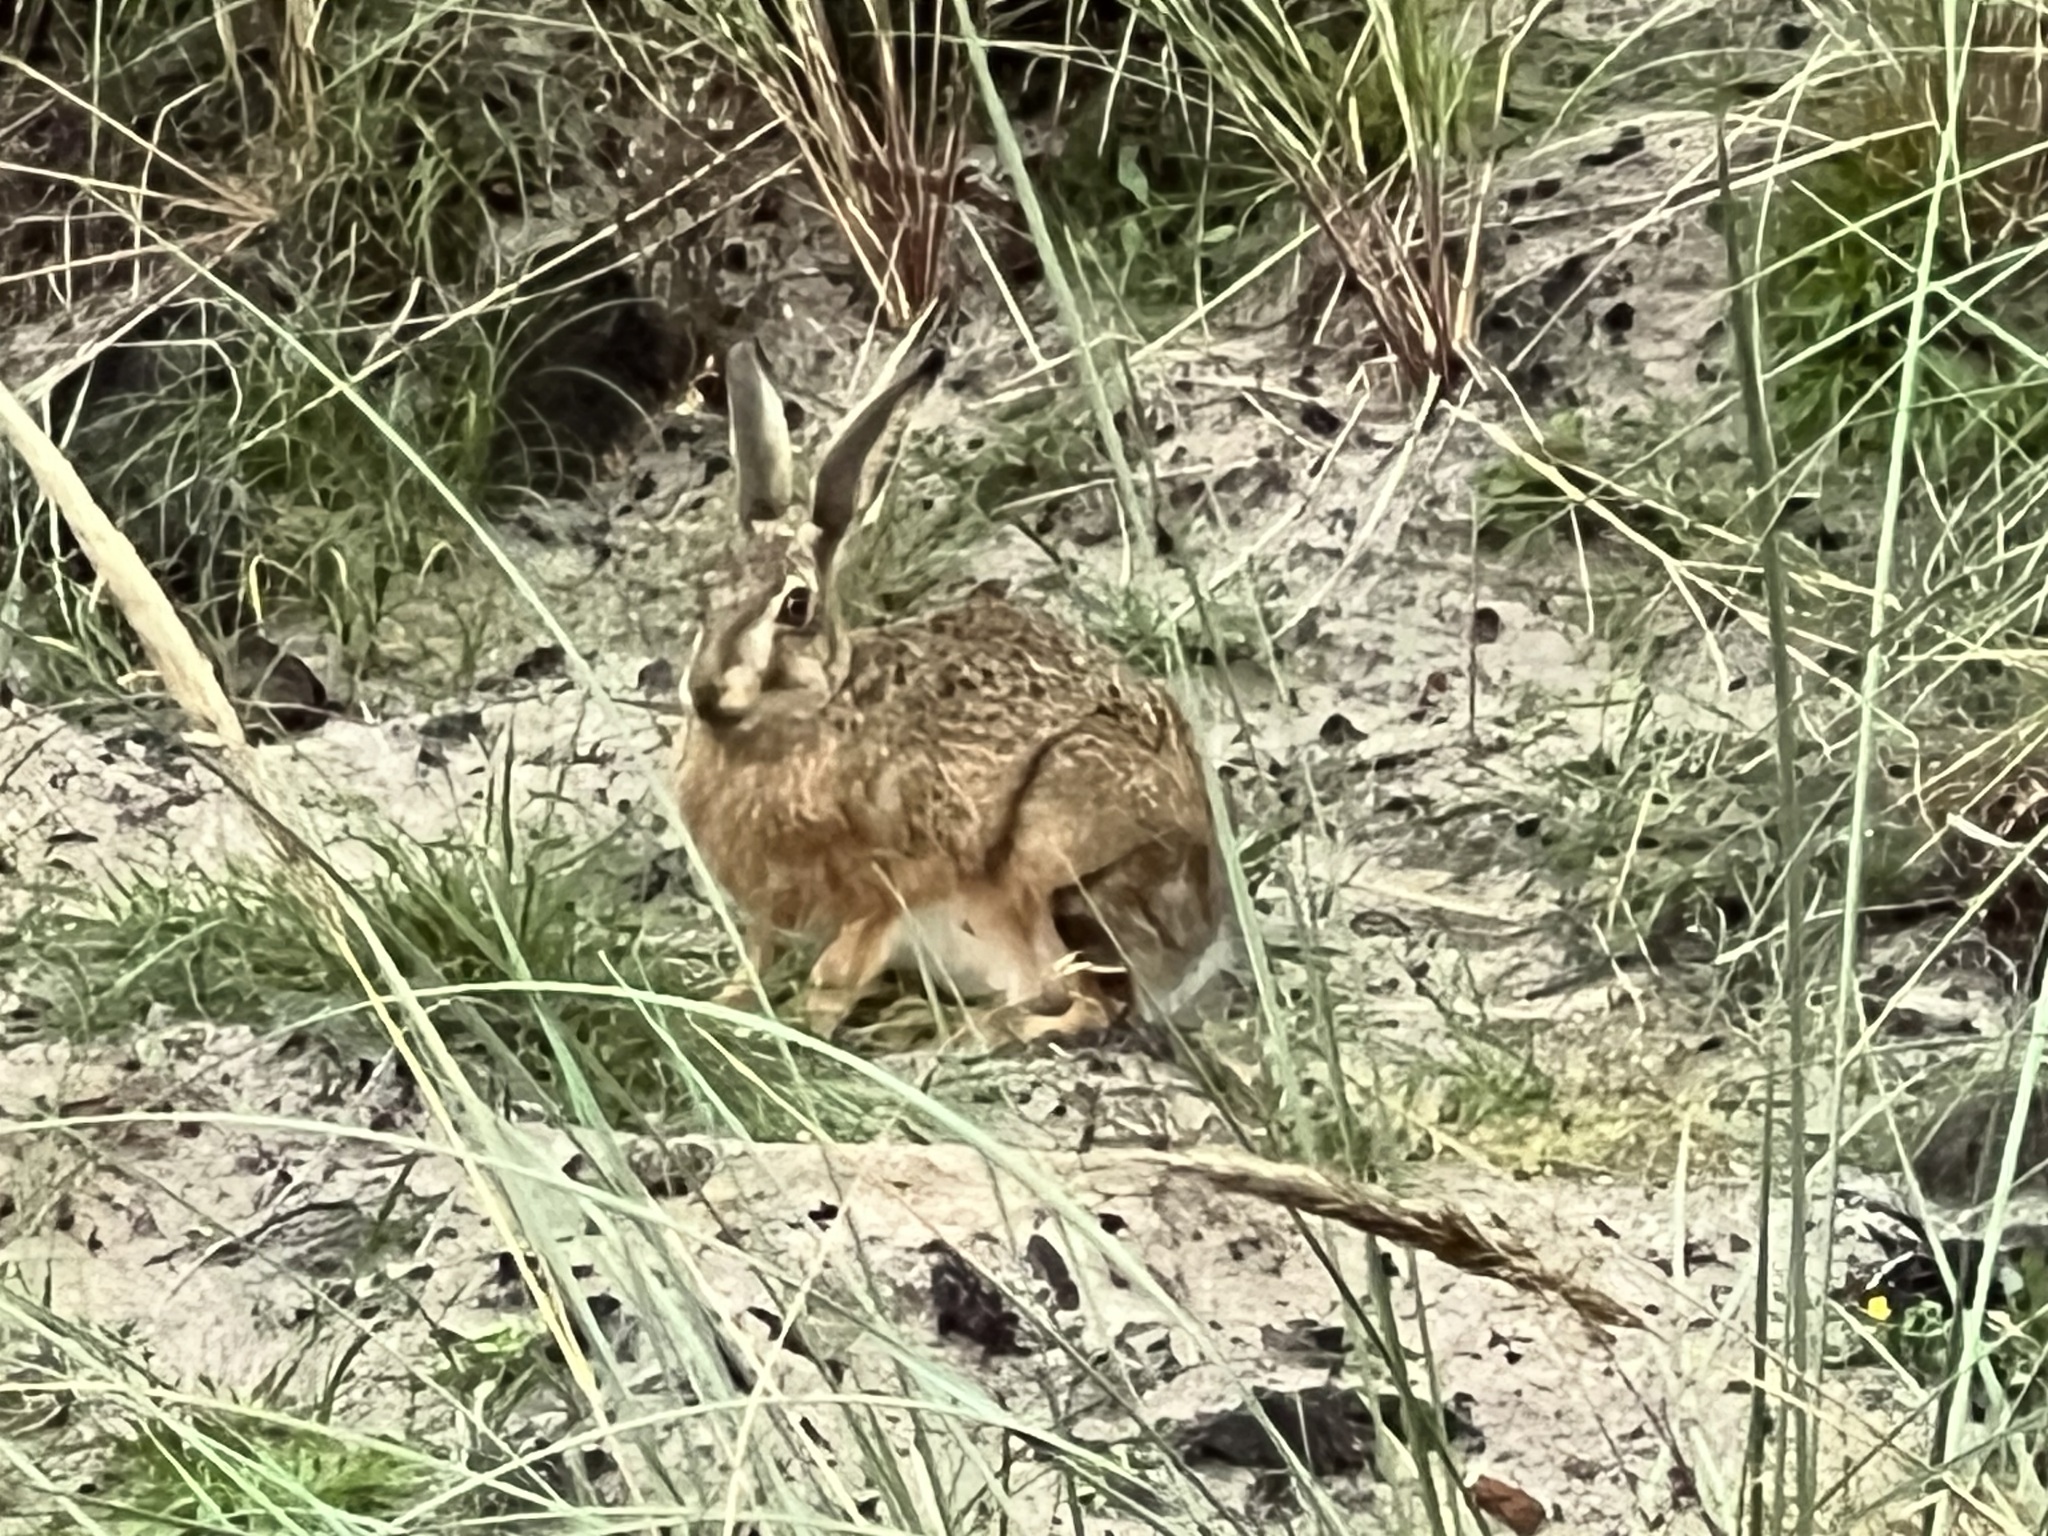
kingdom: Animalia
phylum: Chordata
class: Mammalia
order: Lagomorpha
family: Leporidae
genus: Lepus
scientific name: Lepus europaeus
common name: European hare
